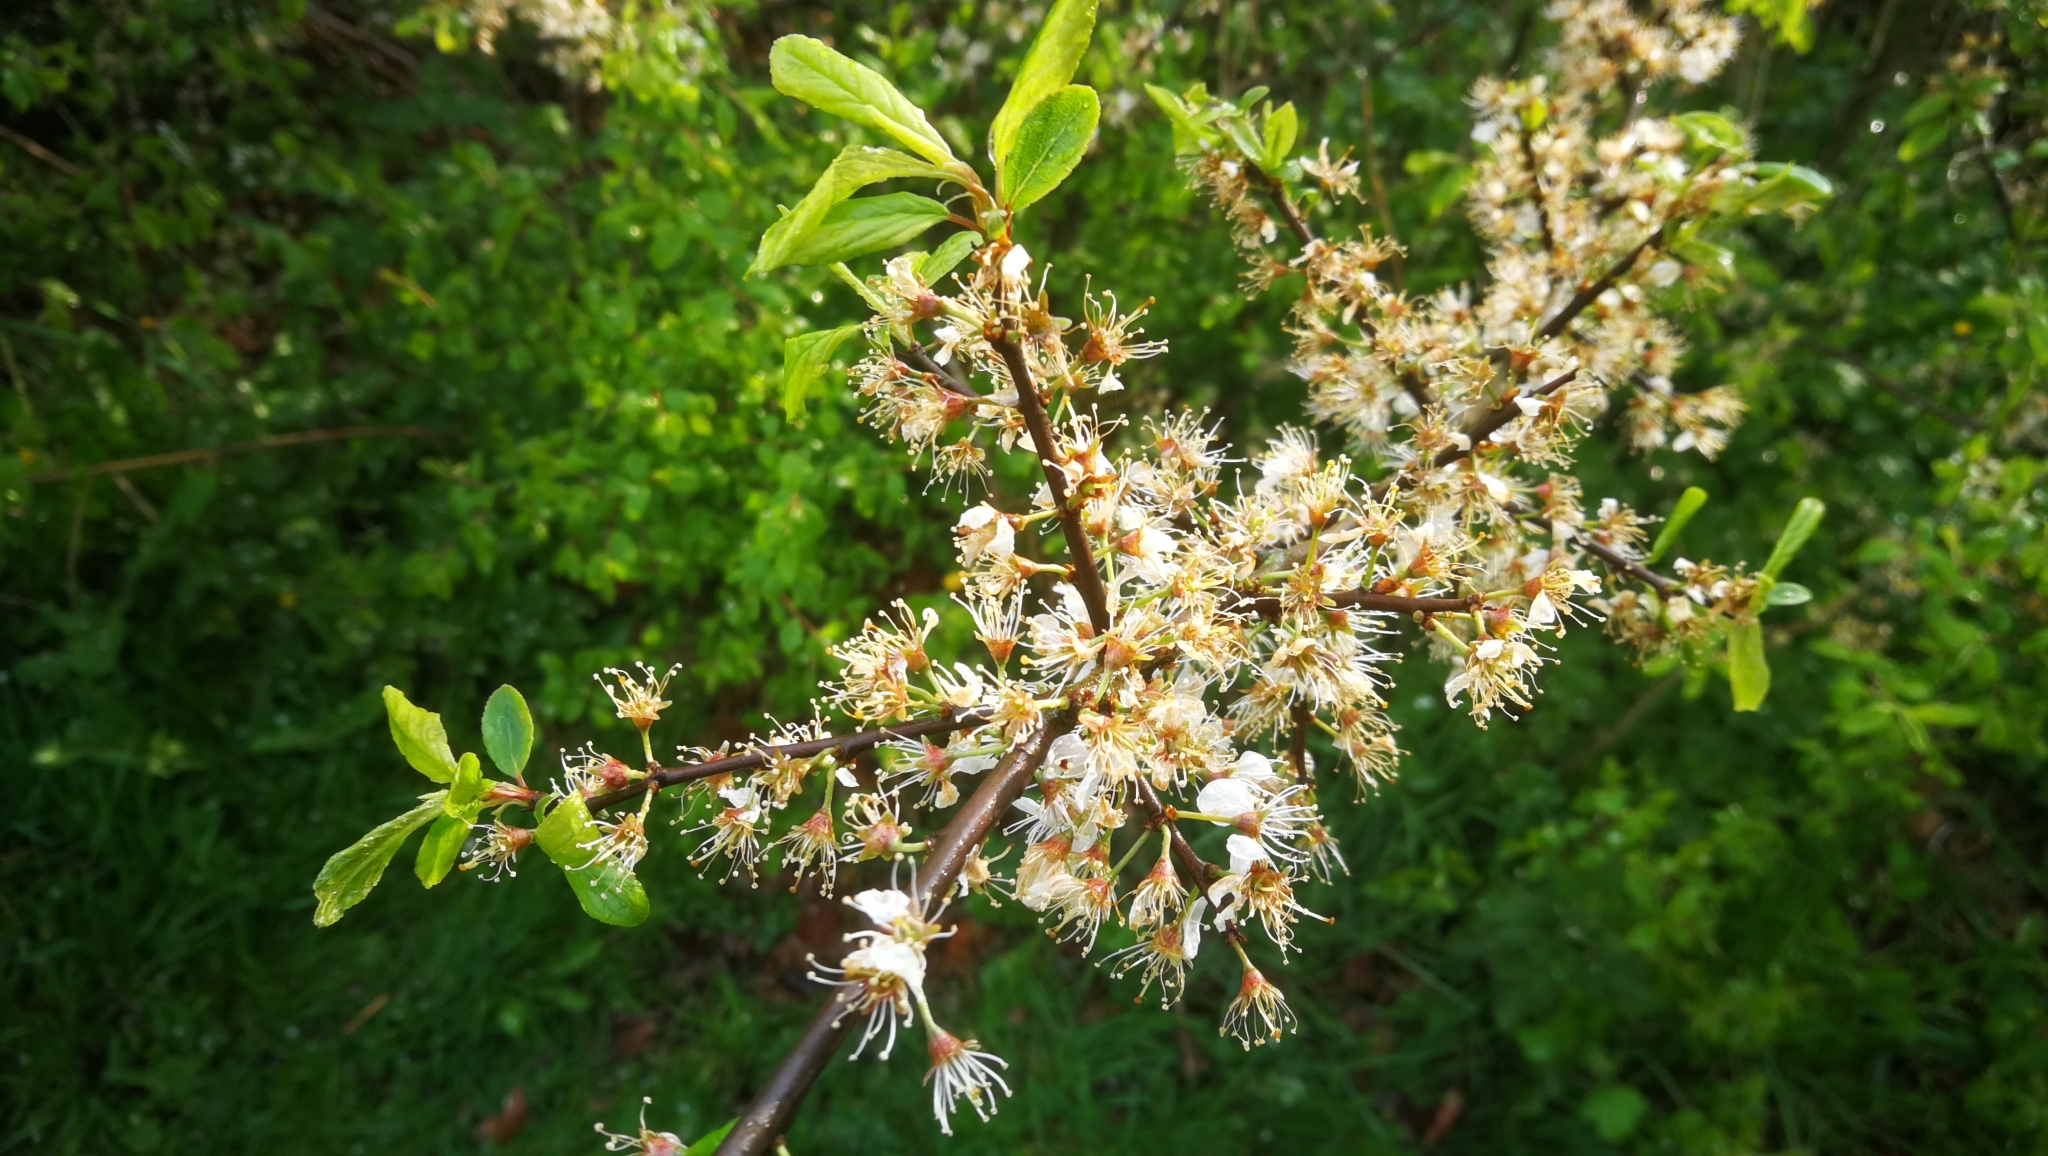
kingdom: Plantae
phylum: Tracheophyta
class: Magnoliopsida
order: Rosales
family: Rosaceae
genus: Prunus
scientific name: Prunus spinosa
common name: Blackthorn
